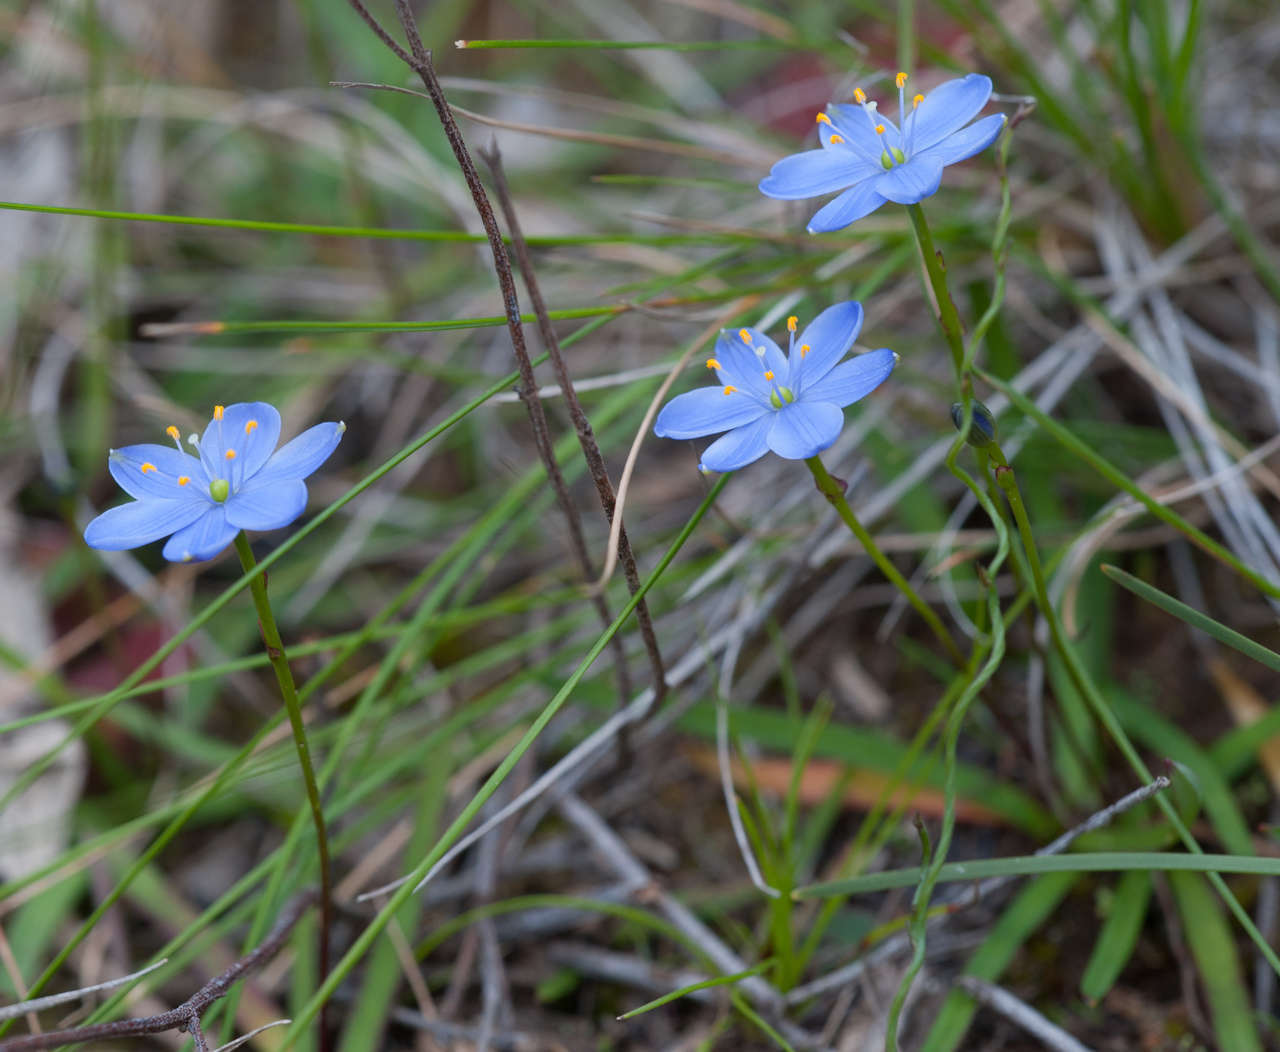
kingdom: Plantae
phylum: Tracheophyta
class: Liliopsida
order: Asparagales
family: Asphodelaceae
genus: Chamaescilla
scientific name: Chamaescilla corymbosa
